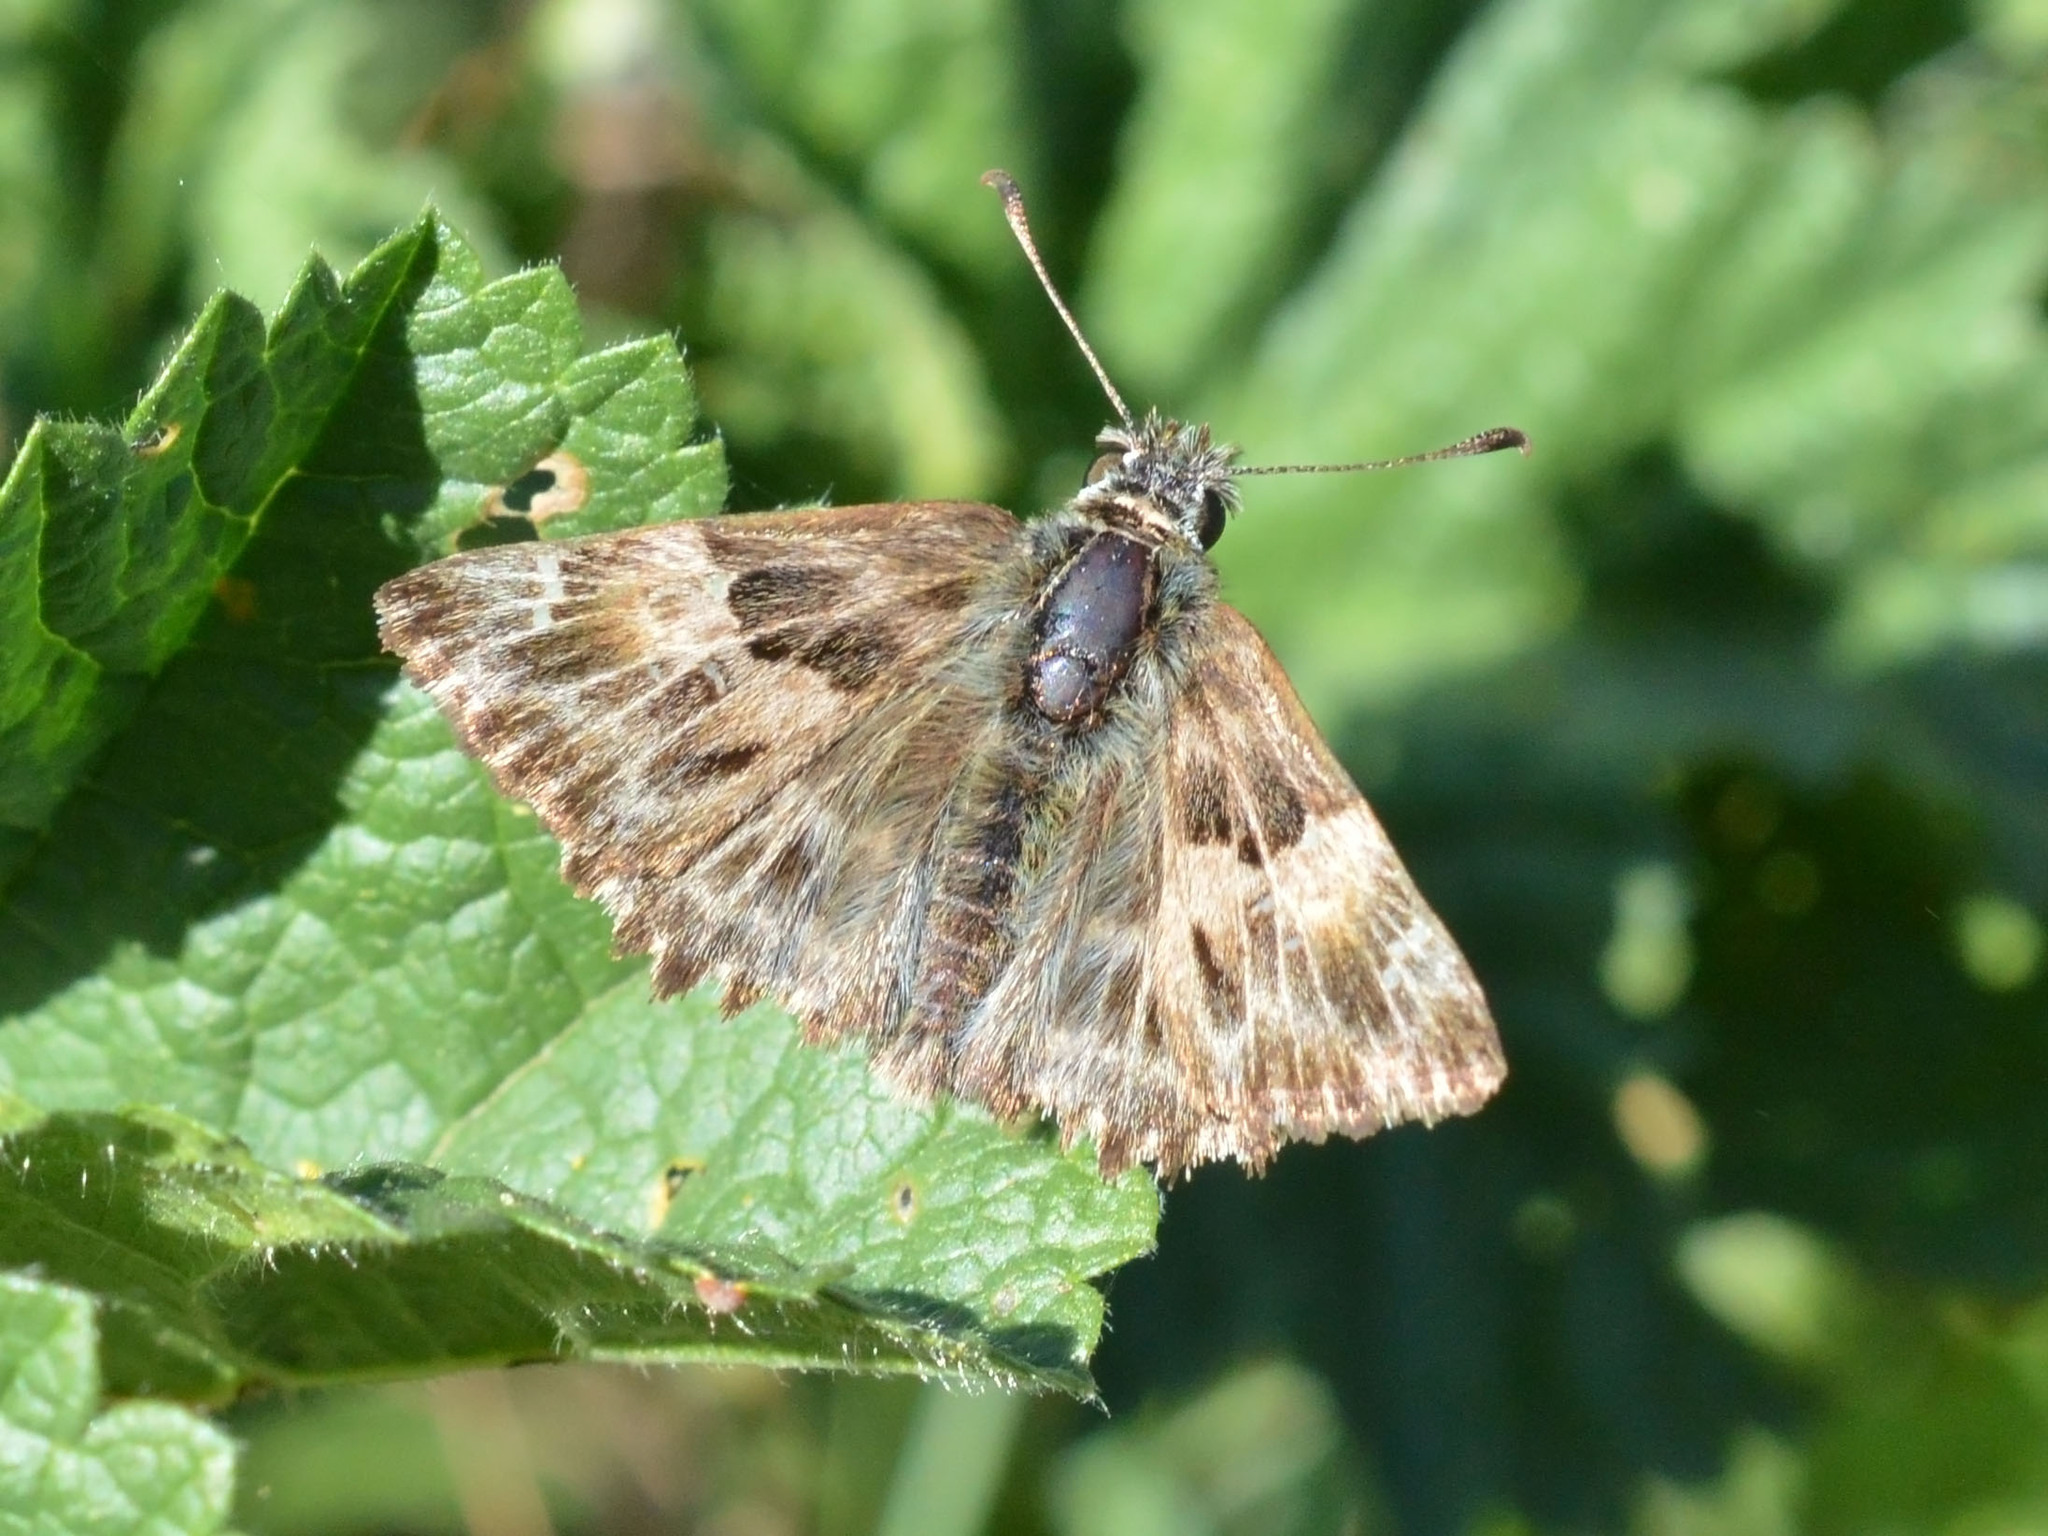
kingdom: Animalia
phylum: Arthropoda
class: Insecta
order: Lepidoptera
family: Hesperiidae
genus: Carcharodus
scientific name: Carcharodus alceae
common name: Mallow skipper
